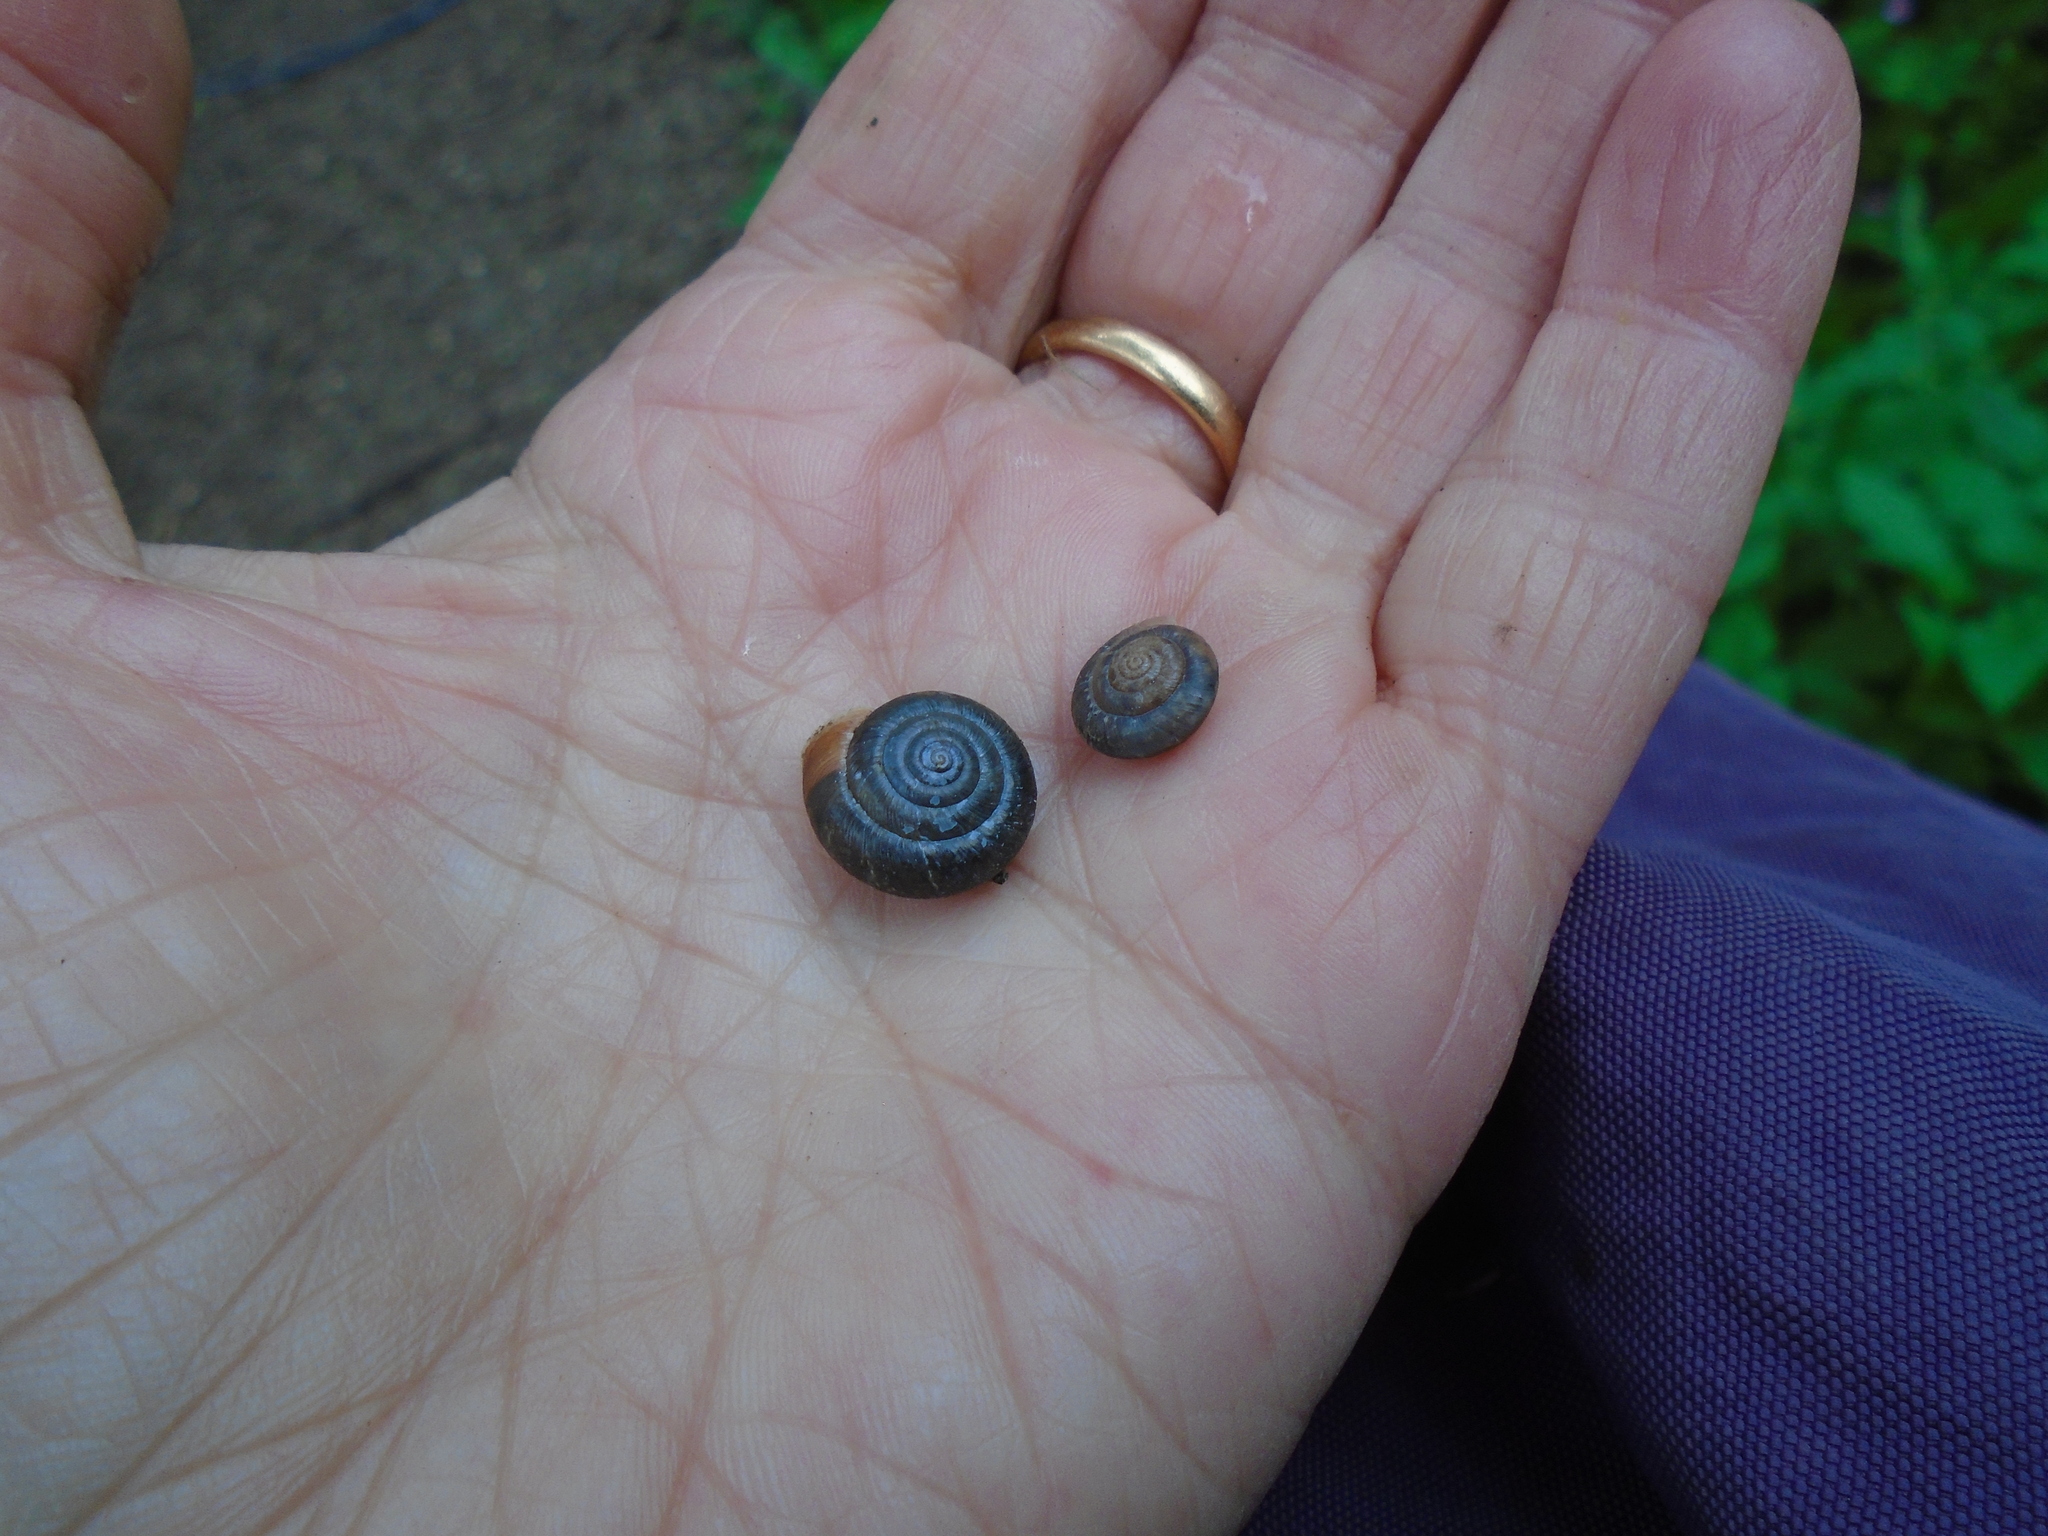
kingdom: Animalia
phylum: Mollusca
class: Gastropoda
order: Stylommatophora
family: Hygromiidae
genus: Trochulus
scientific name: Trochulus striolatus
